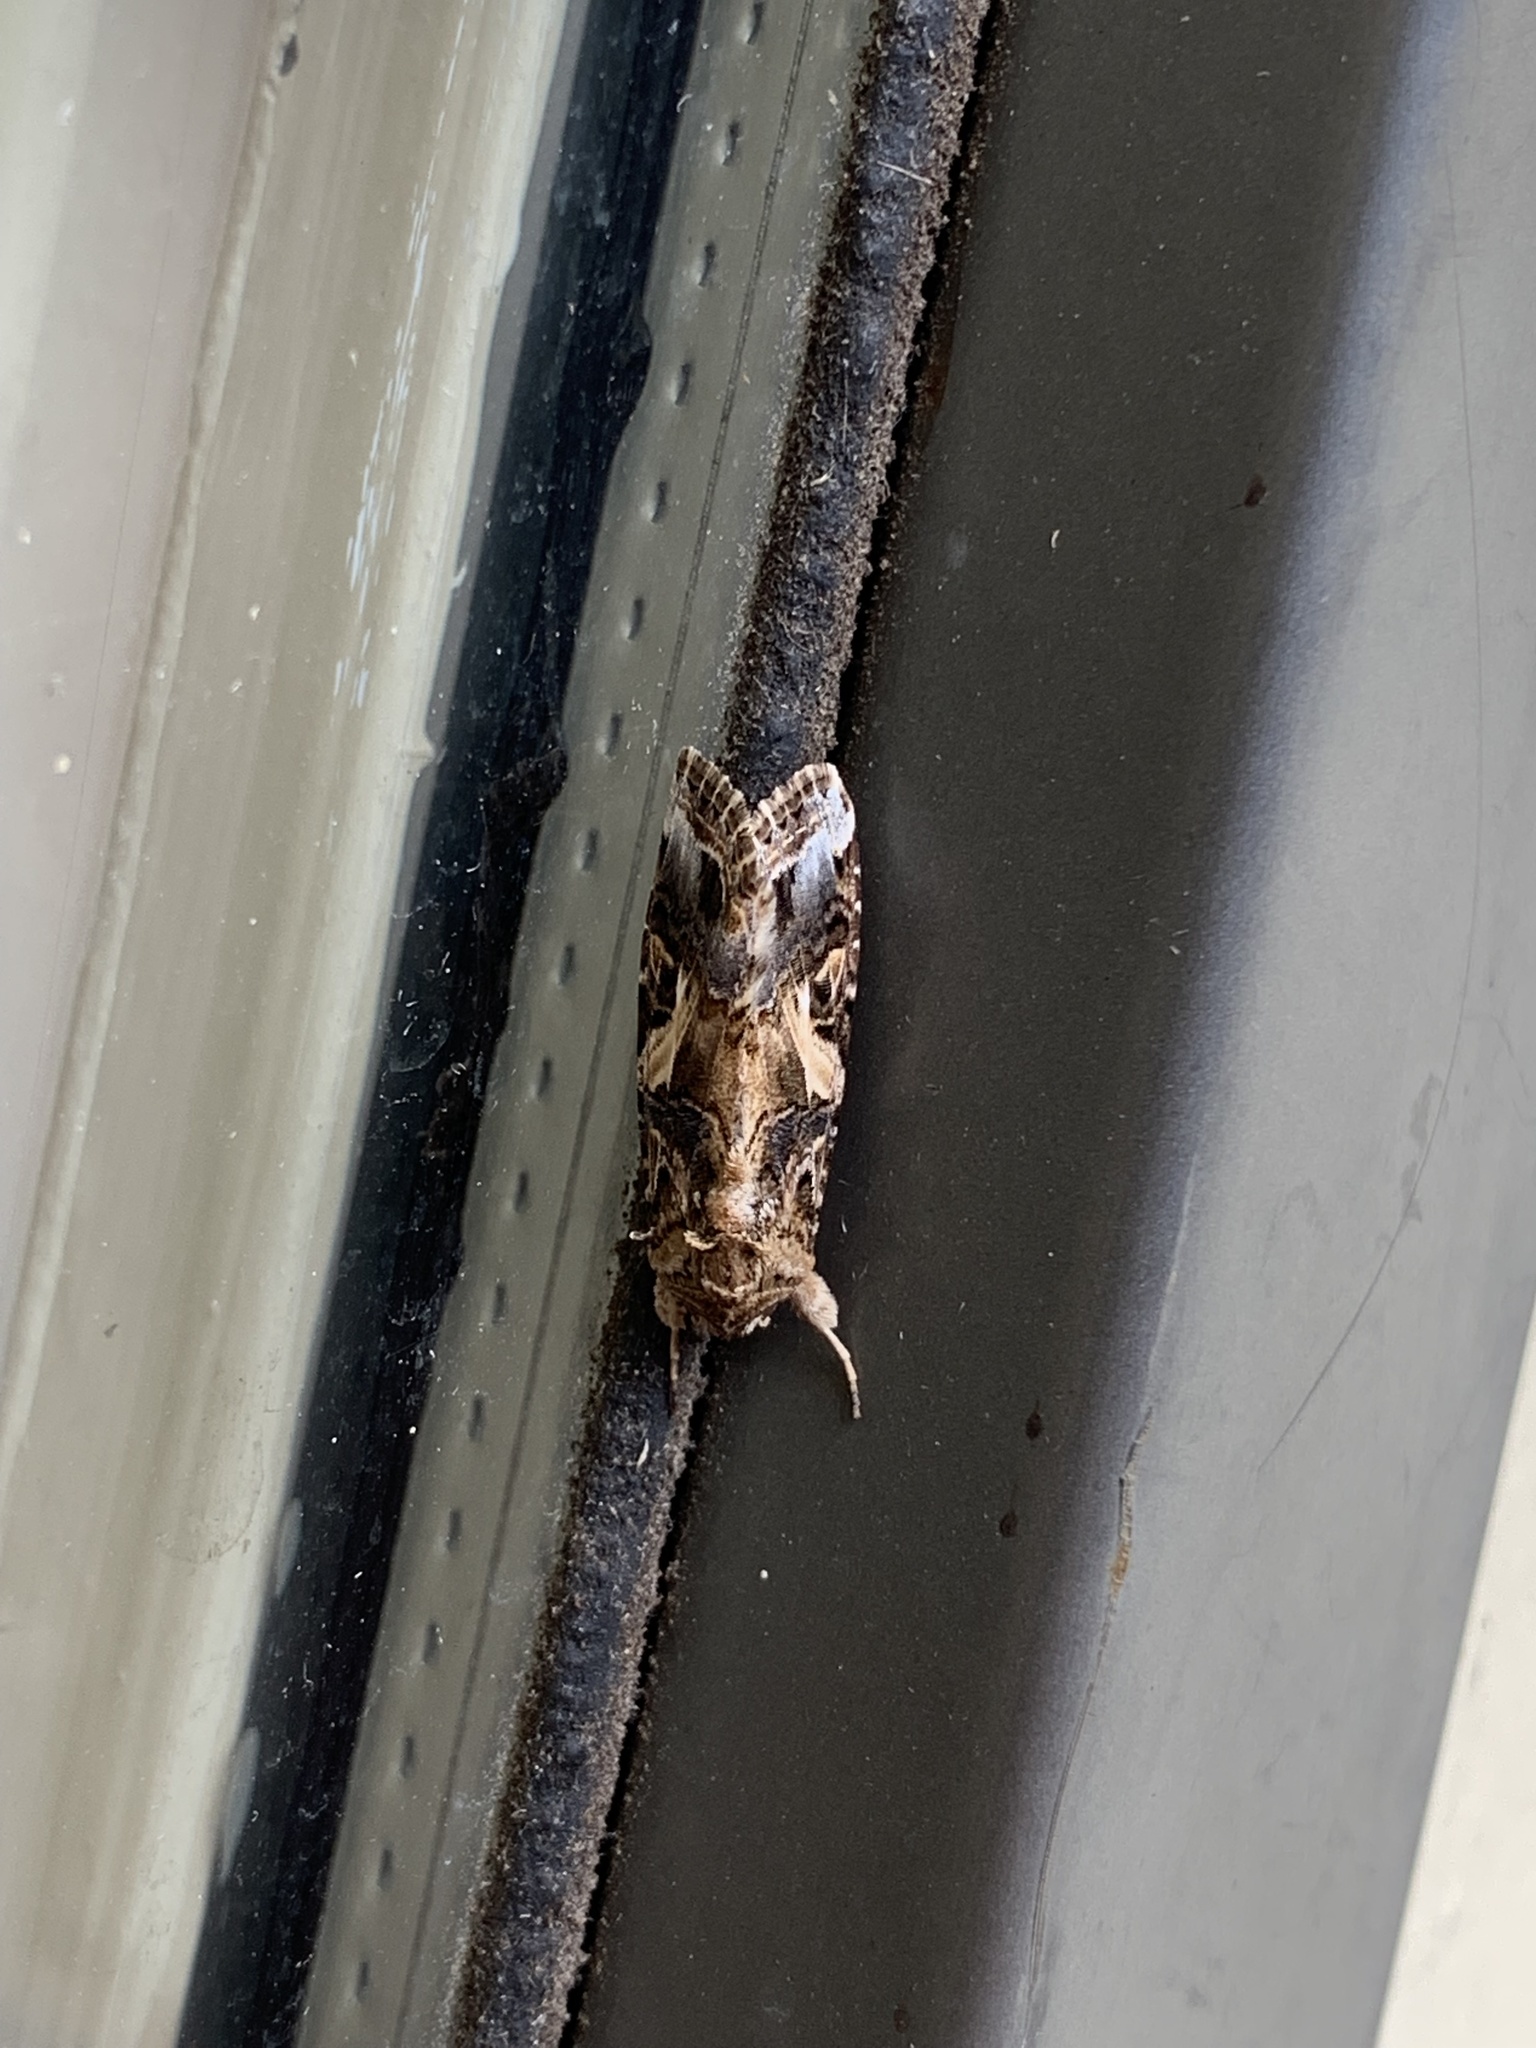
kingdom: Animalia
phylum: Arthropoda
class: Insecta
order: Lepidoptera
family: Noctuidae
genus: Spodoptera
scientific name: Spodoptera ornithogalli
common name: Yellow-striped armyworm
